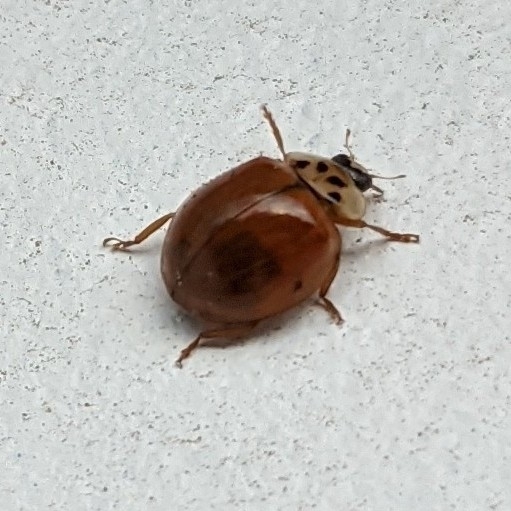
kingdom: Animalia
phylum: Arthropoda
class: Insecta
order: Coleoptera
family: Coccinellidae
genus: Harmonia
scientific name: Harmonia axyridis
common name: Harlequin ladybird
